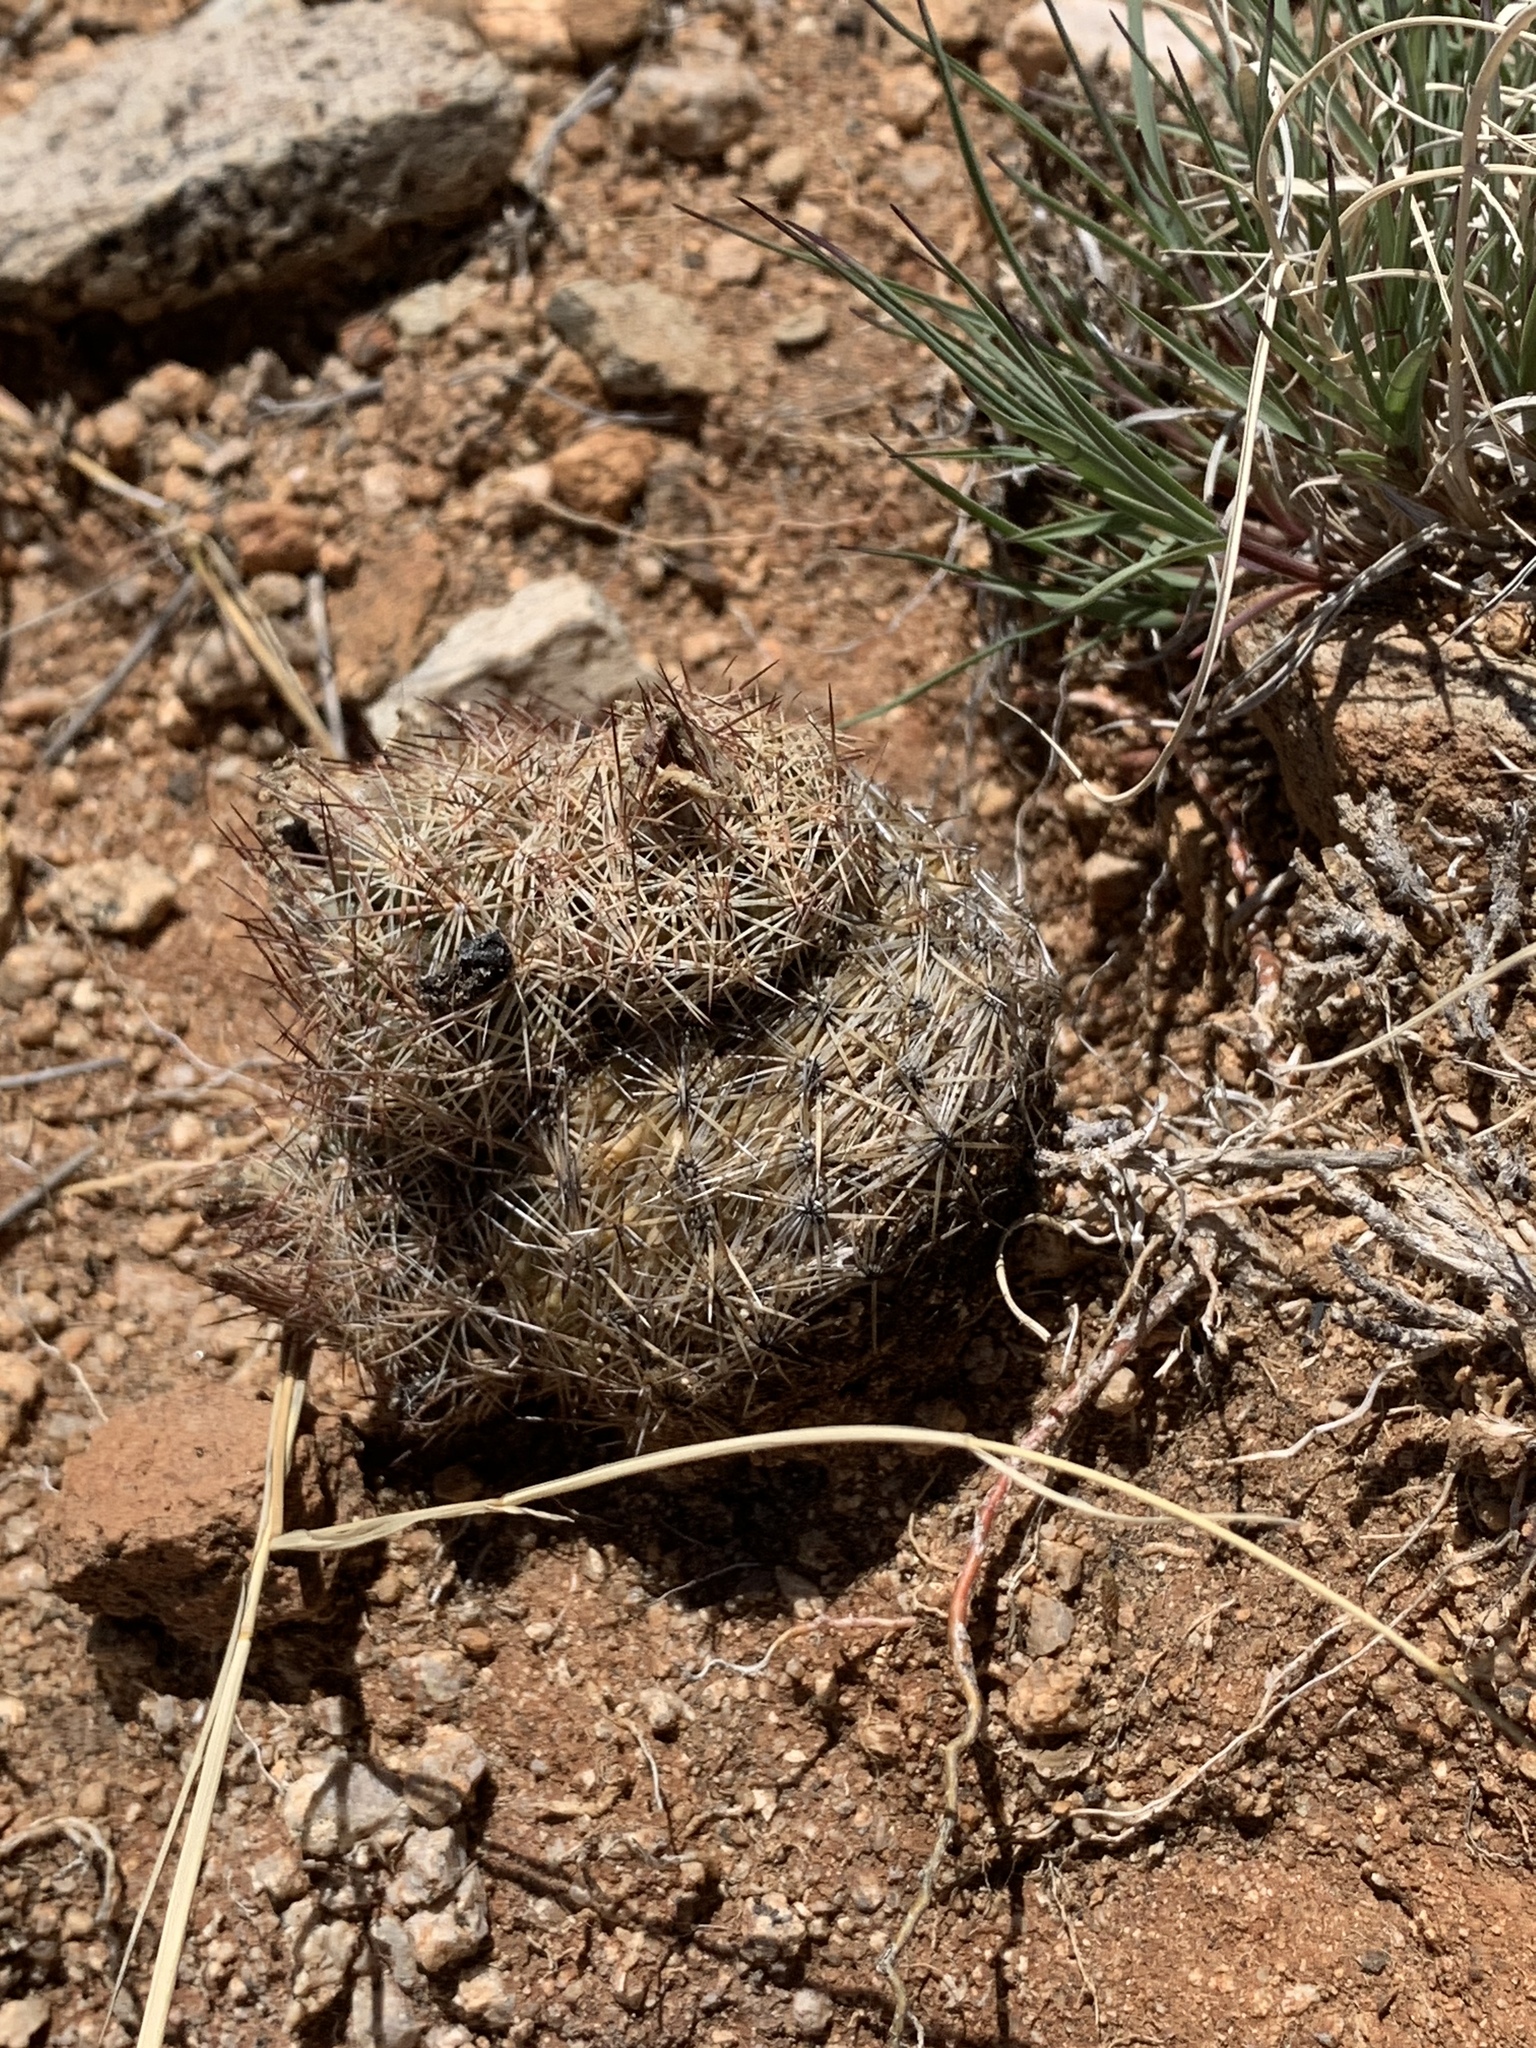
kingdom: Plantae
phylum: Tracheophyta
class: Magnoliopsida
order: Caryophyllales
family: Cactaceae
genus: Pelecyphora
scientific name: Pelecyphora vivipara
